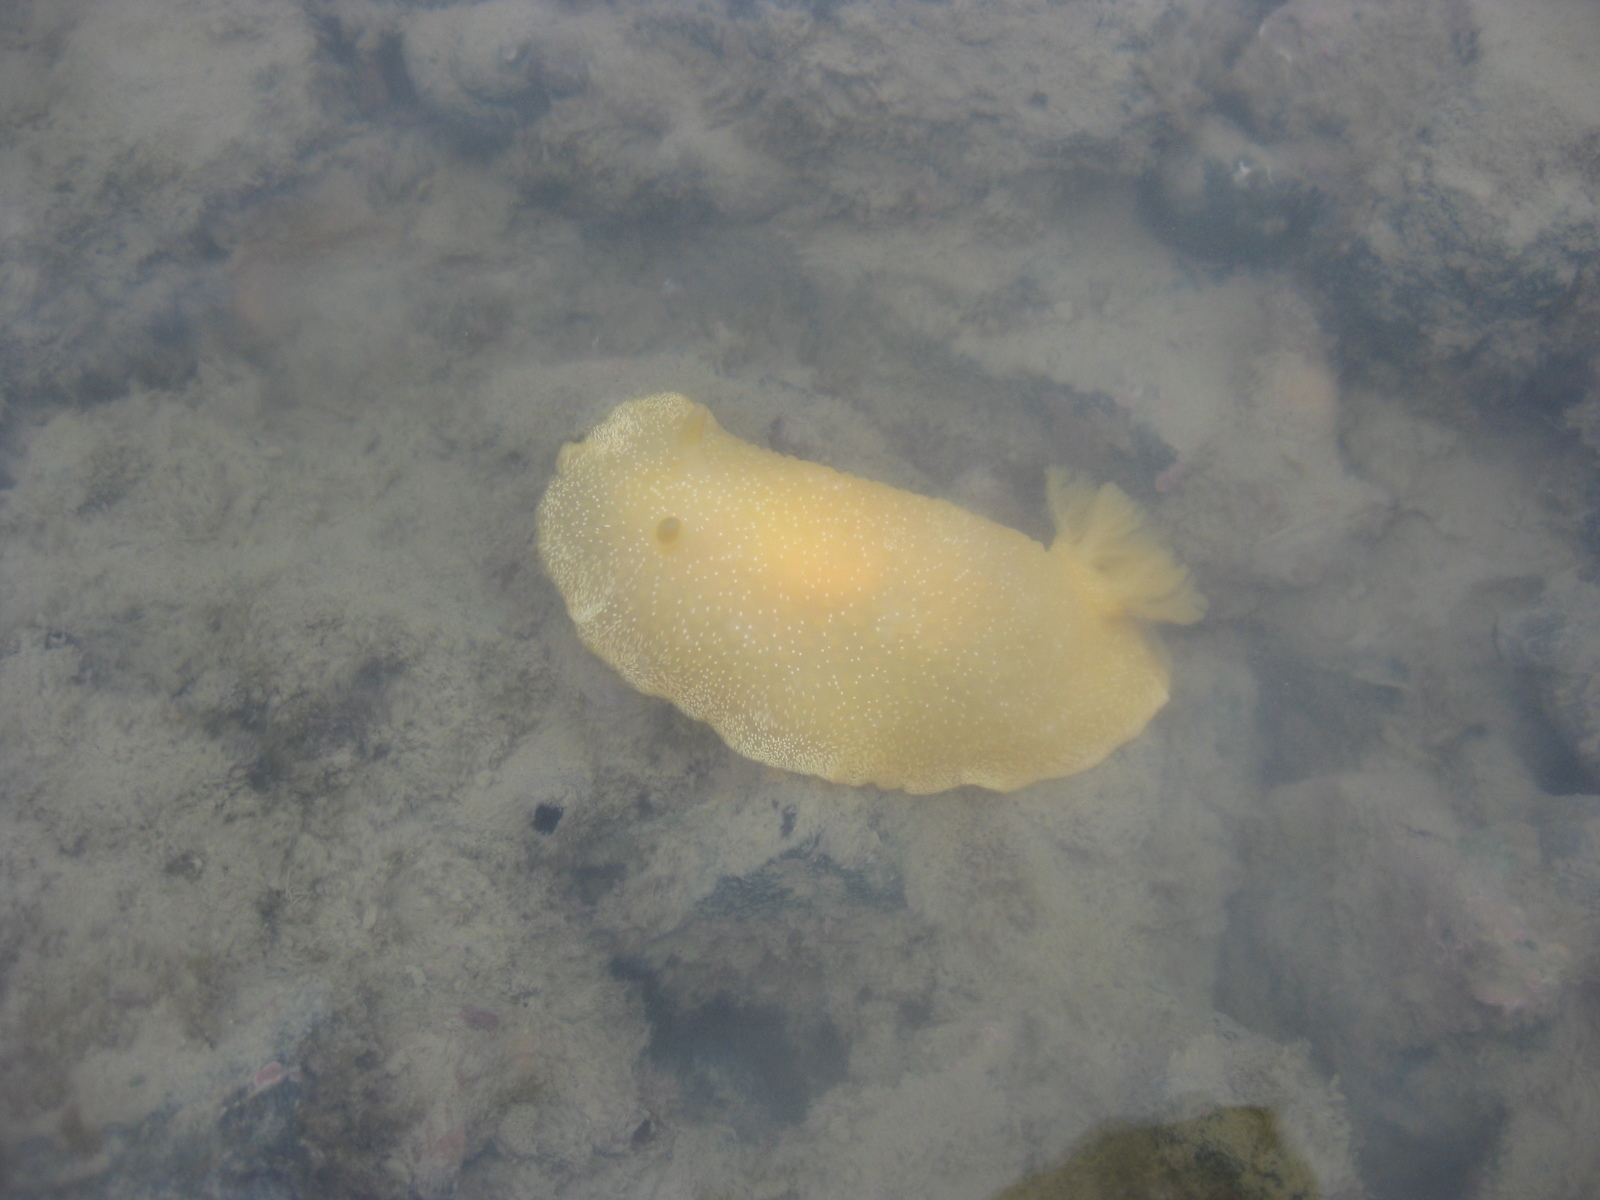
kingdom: Animalia
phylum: Mollusca
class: Gastropoda
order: Nudibranchia
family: Dendrodorididae
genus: Dendrodoris
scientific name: Dendrodoris citrina
